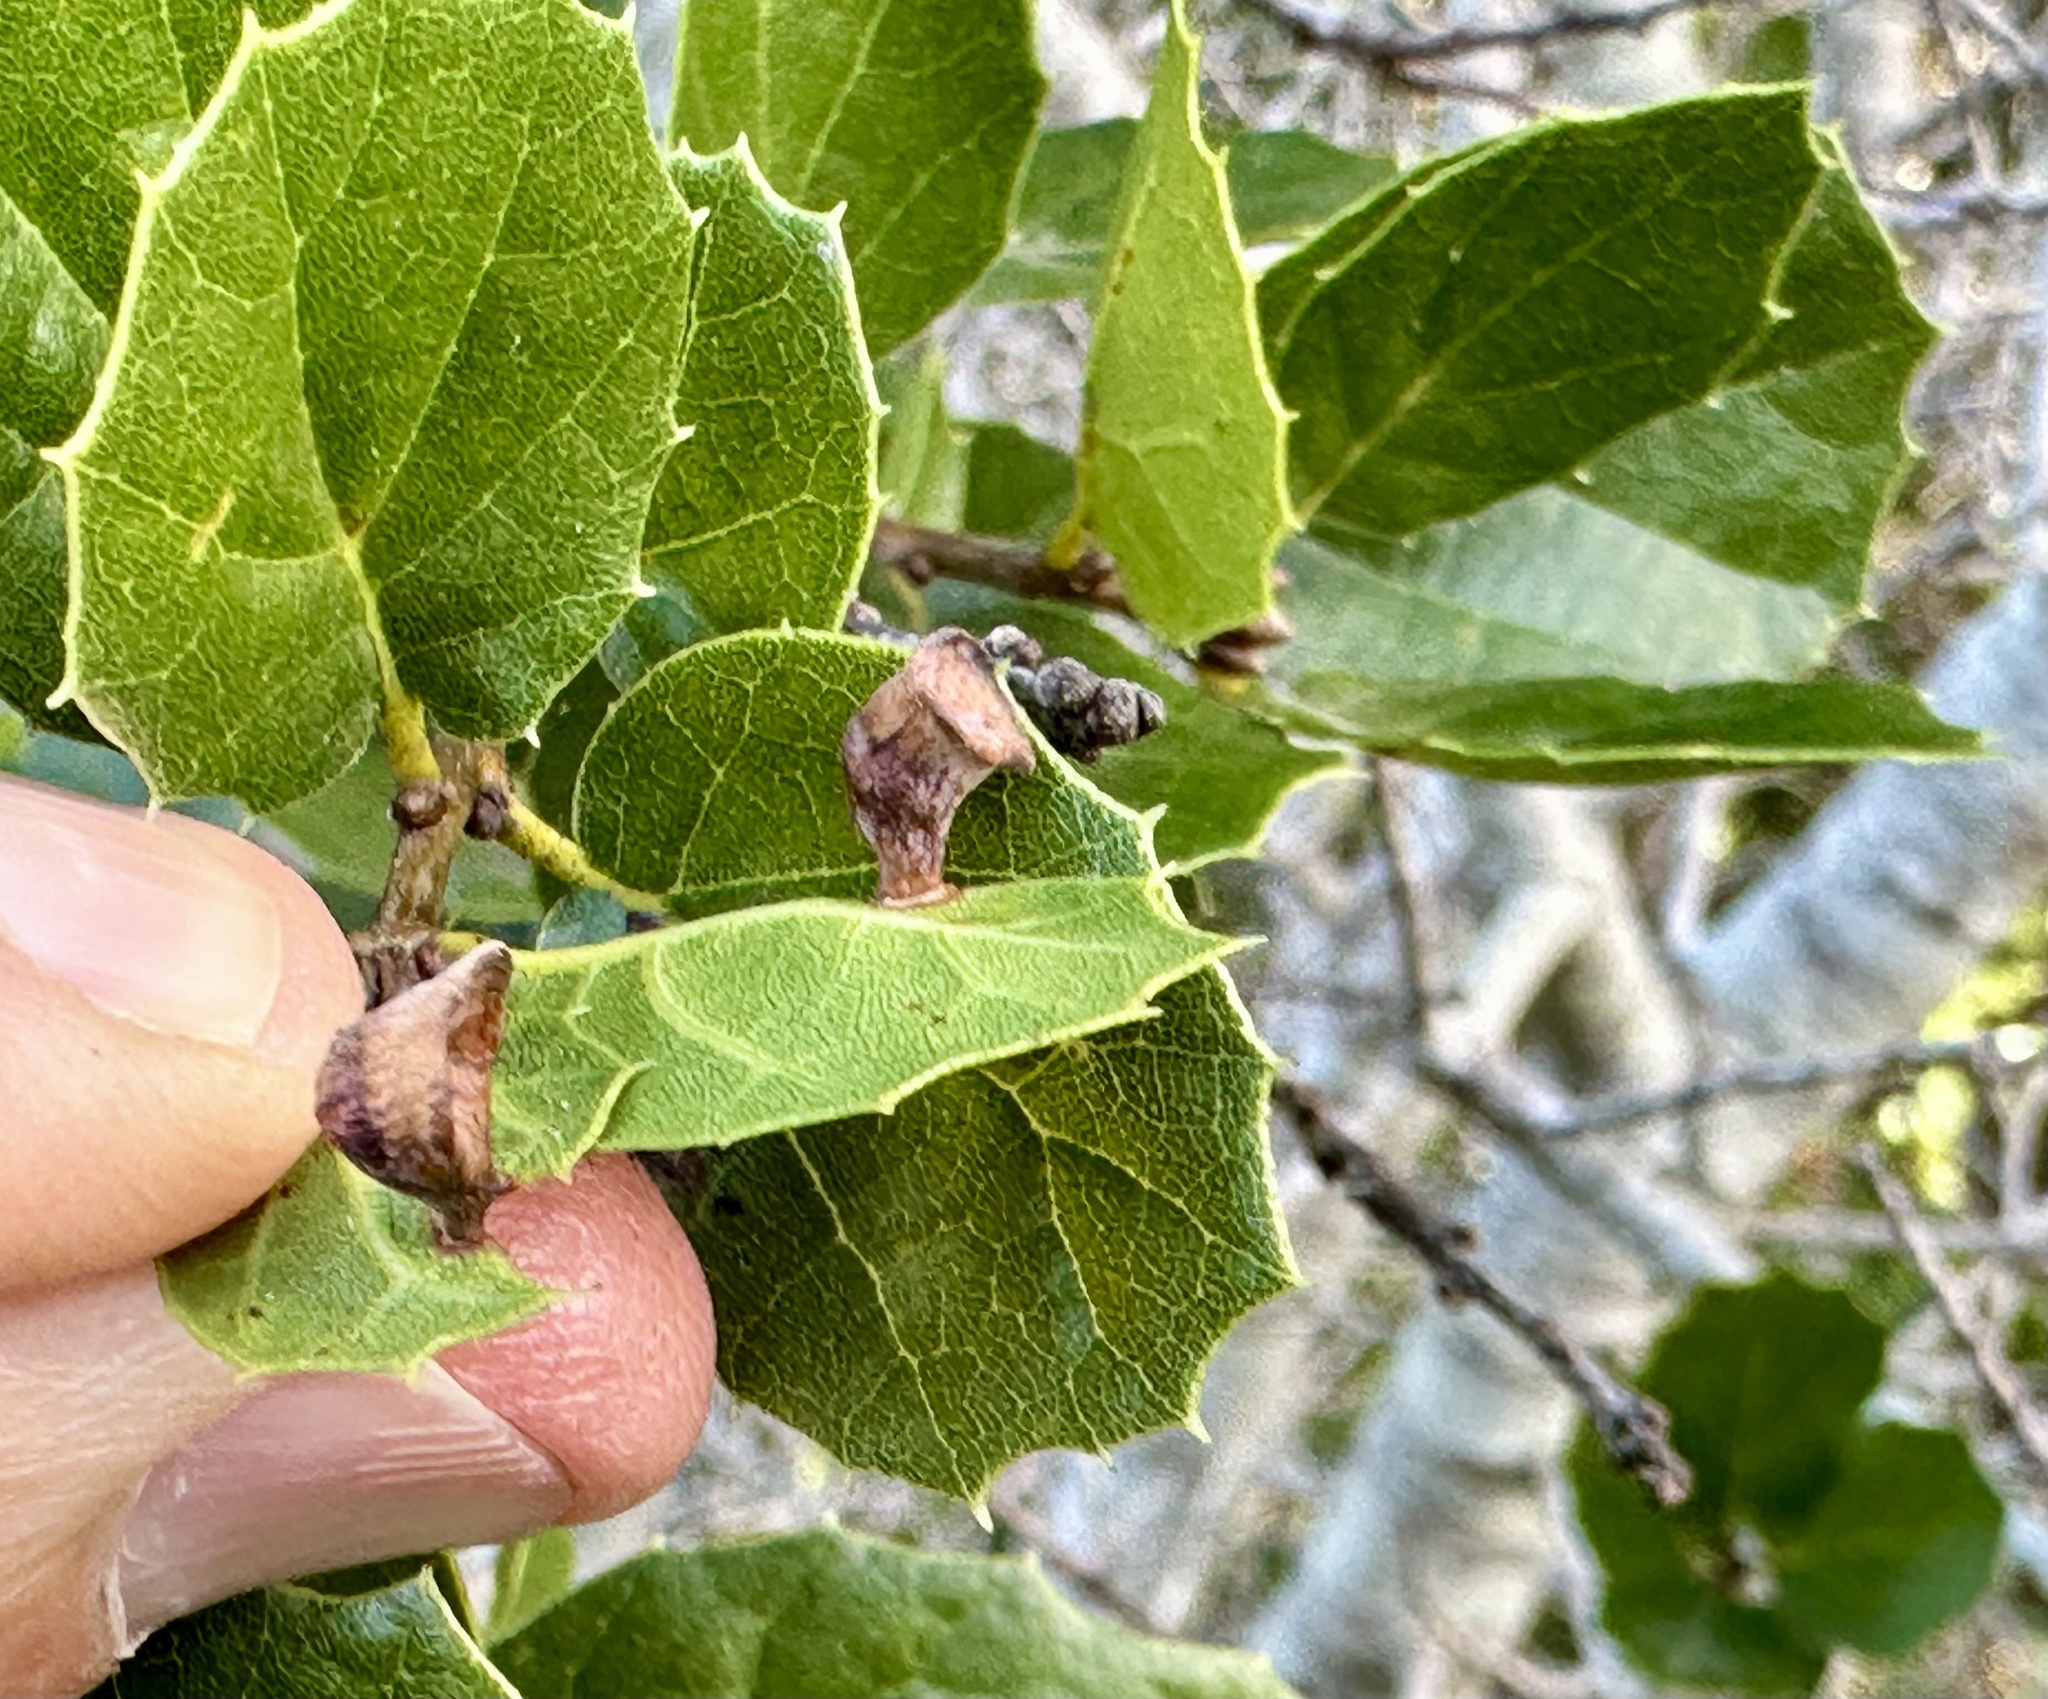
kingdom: Animalia
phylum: Arthropoda
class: Insecta
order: Hymenoptera
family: Cynipidae
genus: Amphibolips
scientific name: Amphibolips quercuspomiformis
